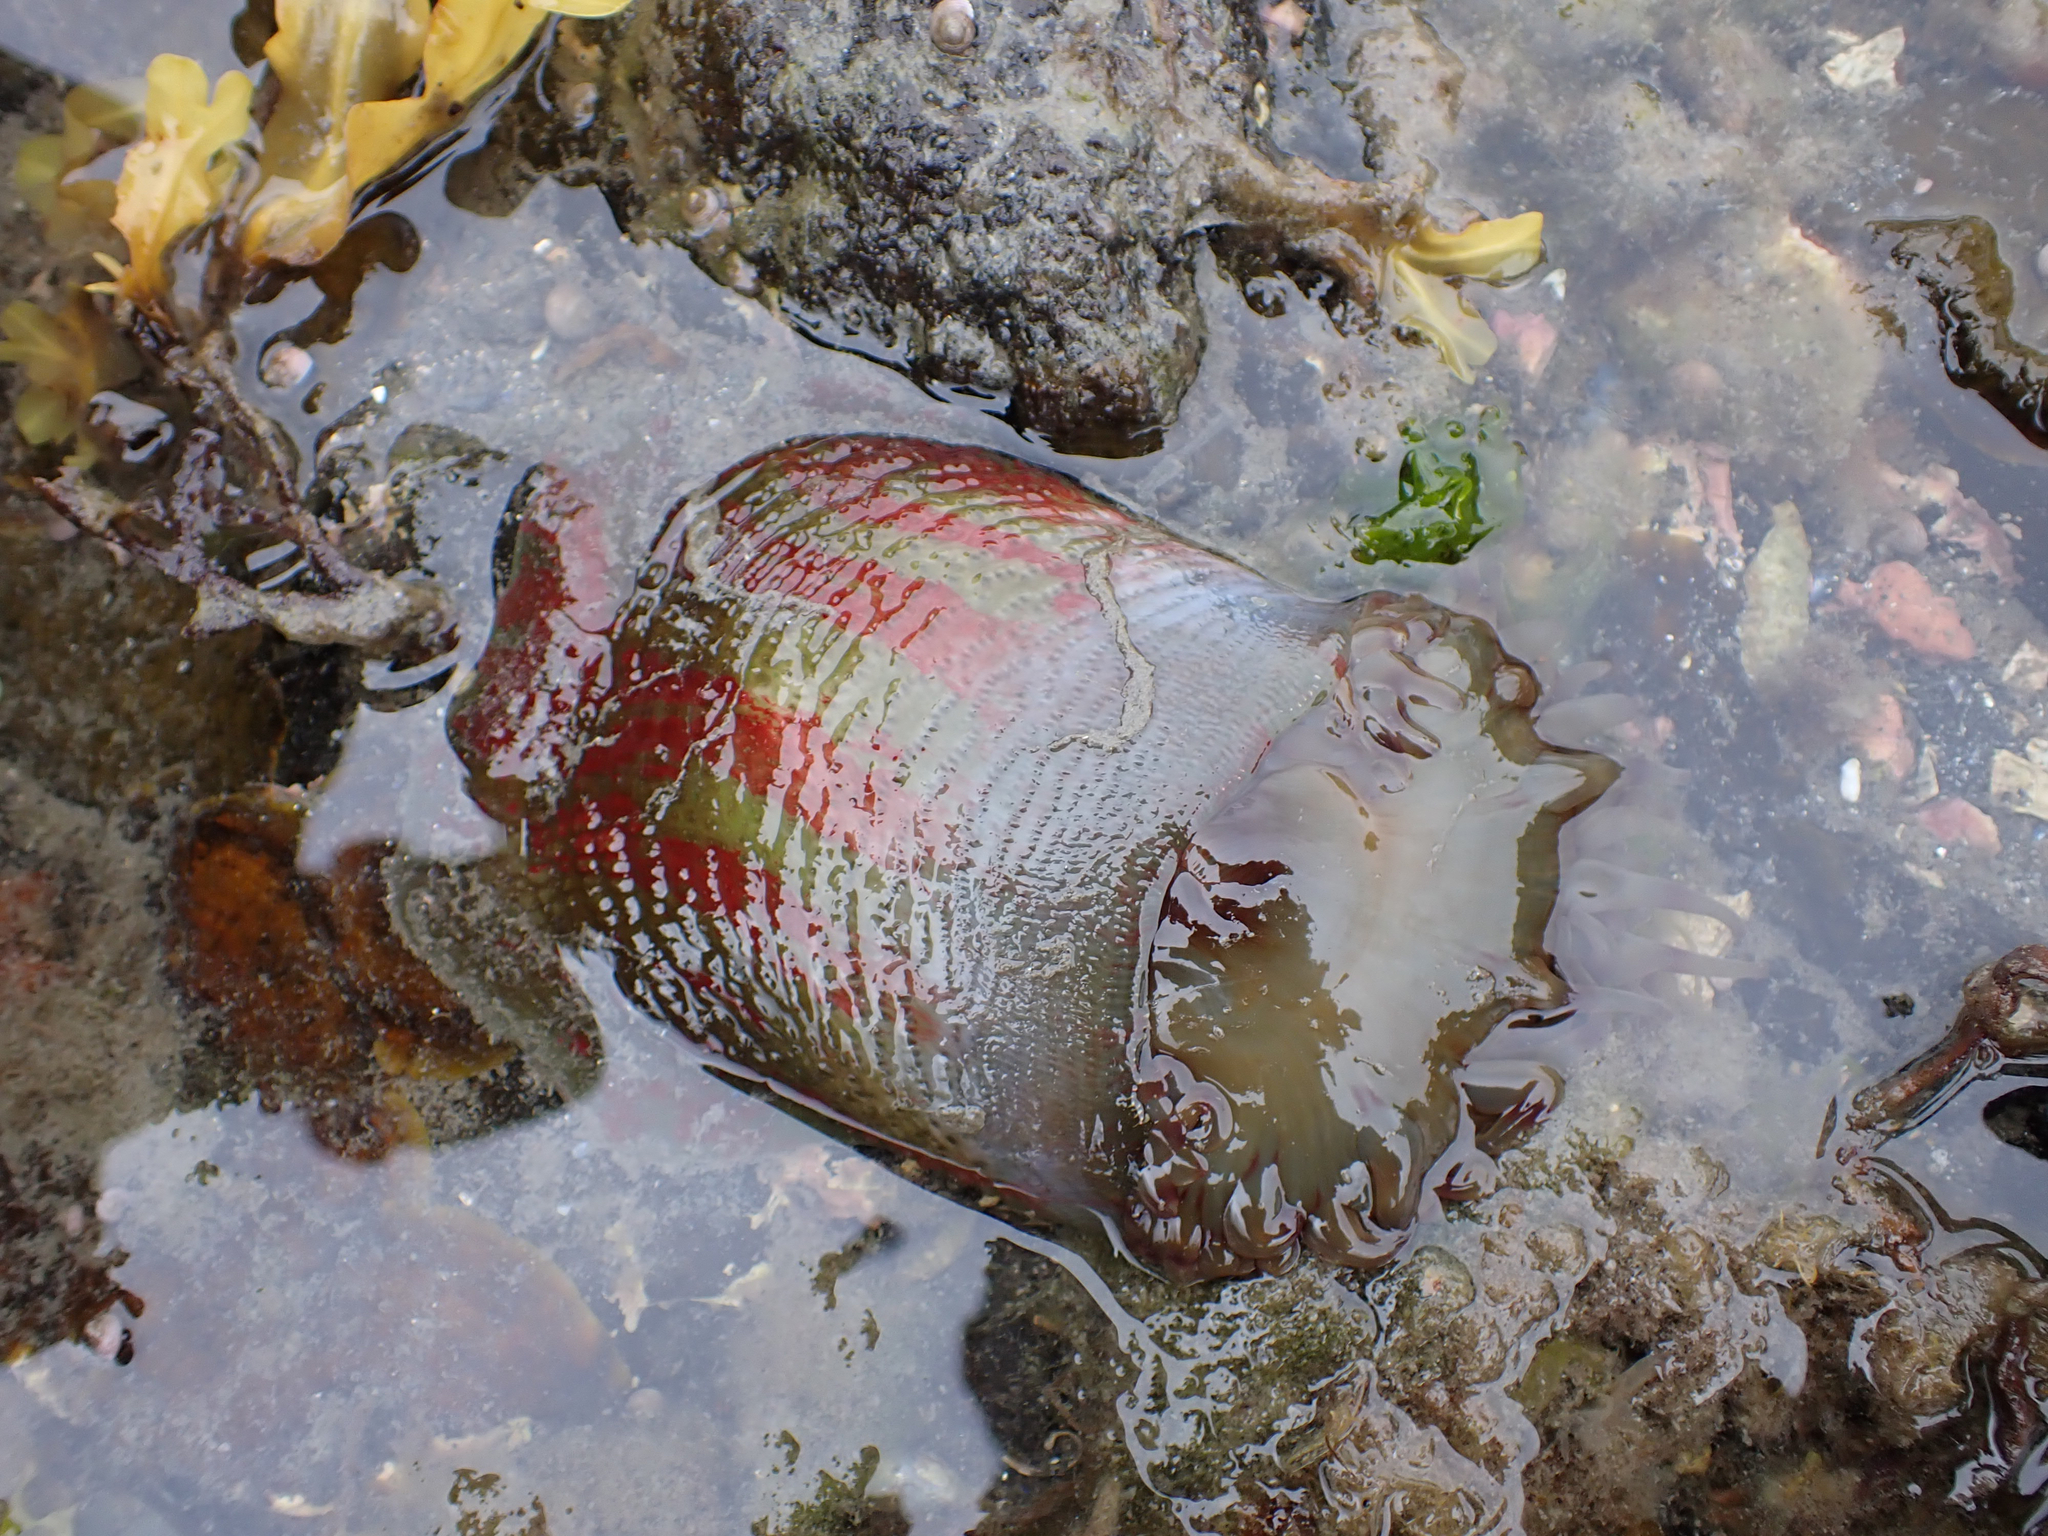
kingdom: Animalia
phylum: Cnidaria
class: Anthozoa
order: Actiniaria
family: Actiniidae
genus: Urticina
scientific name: Urticina grebelnyi
